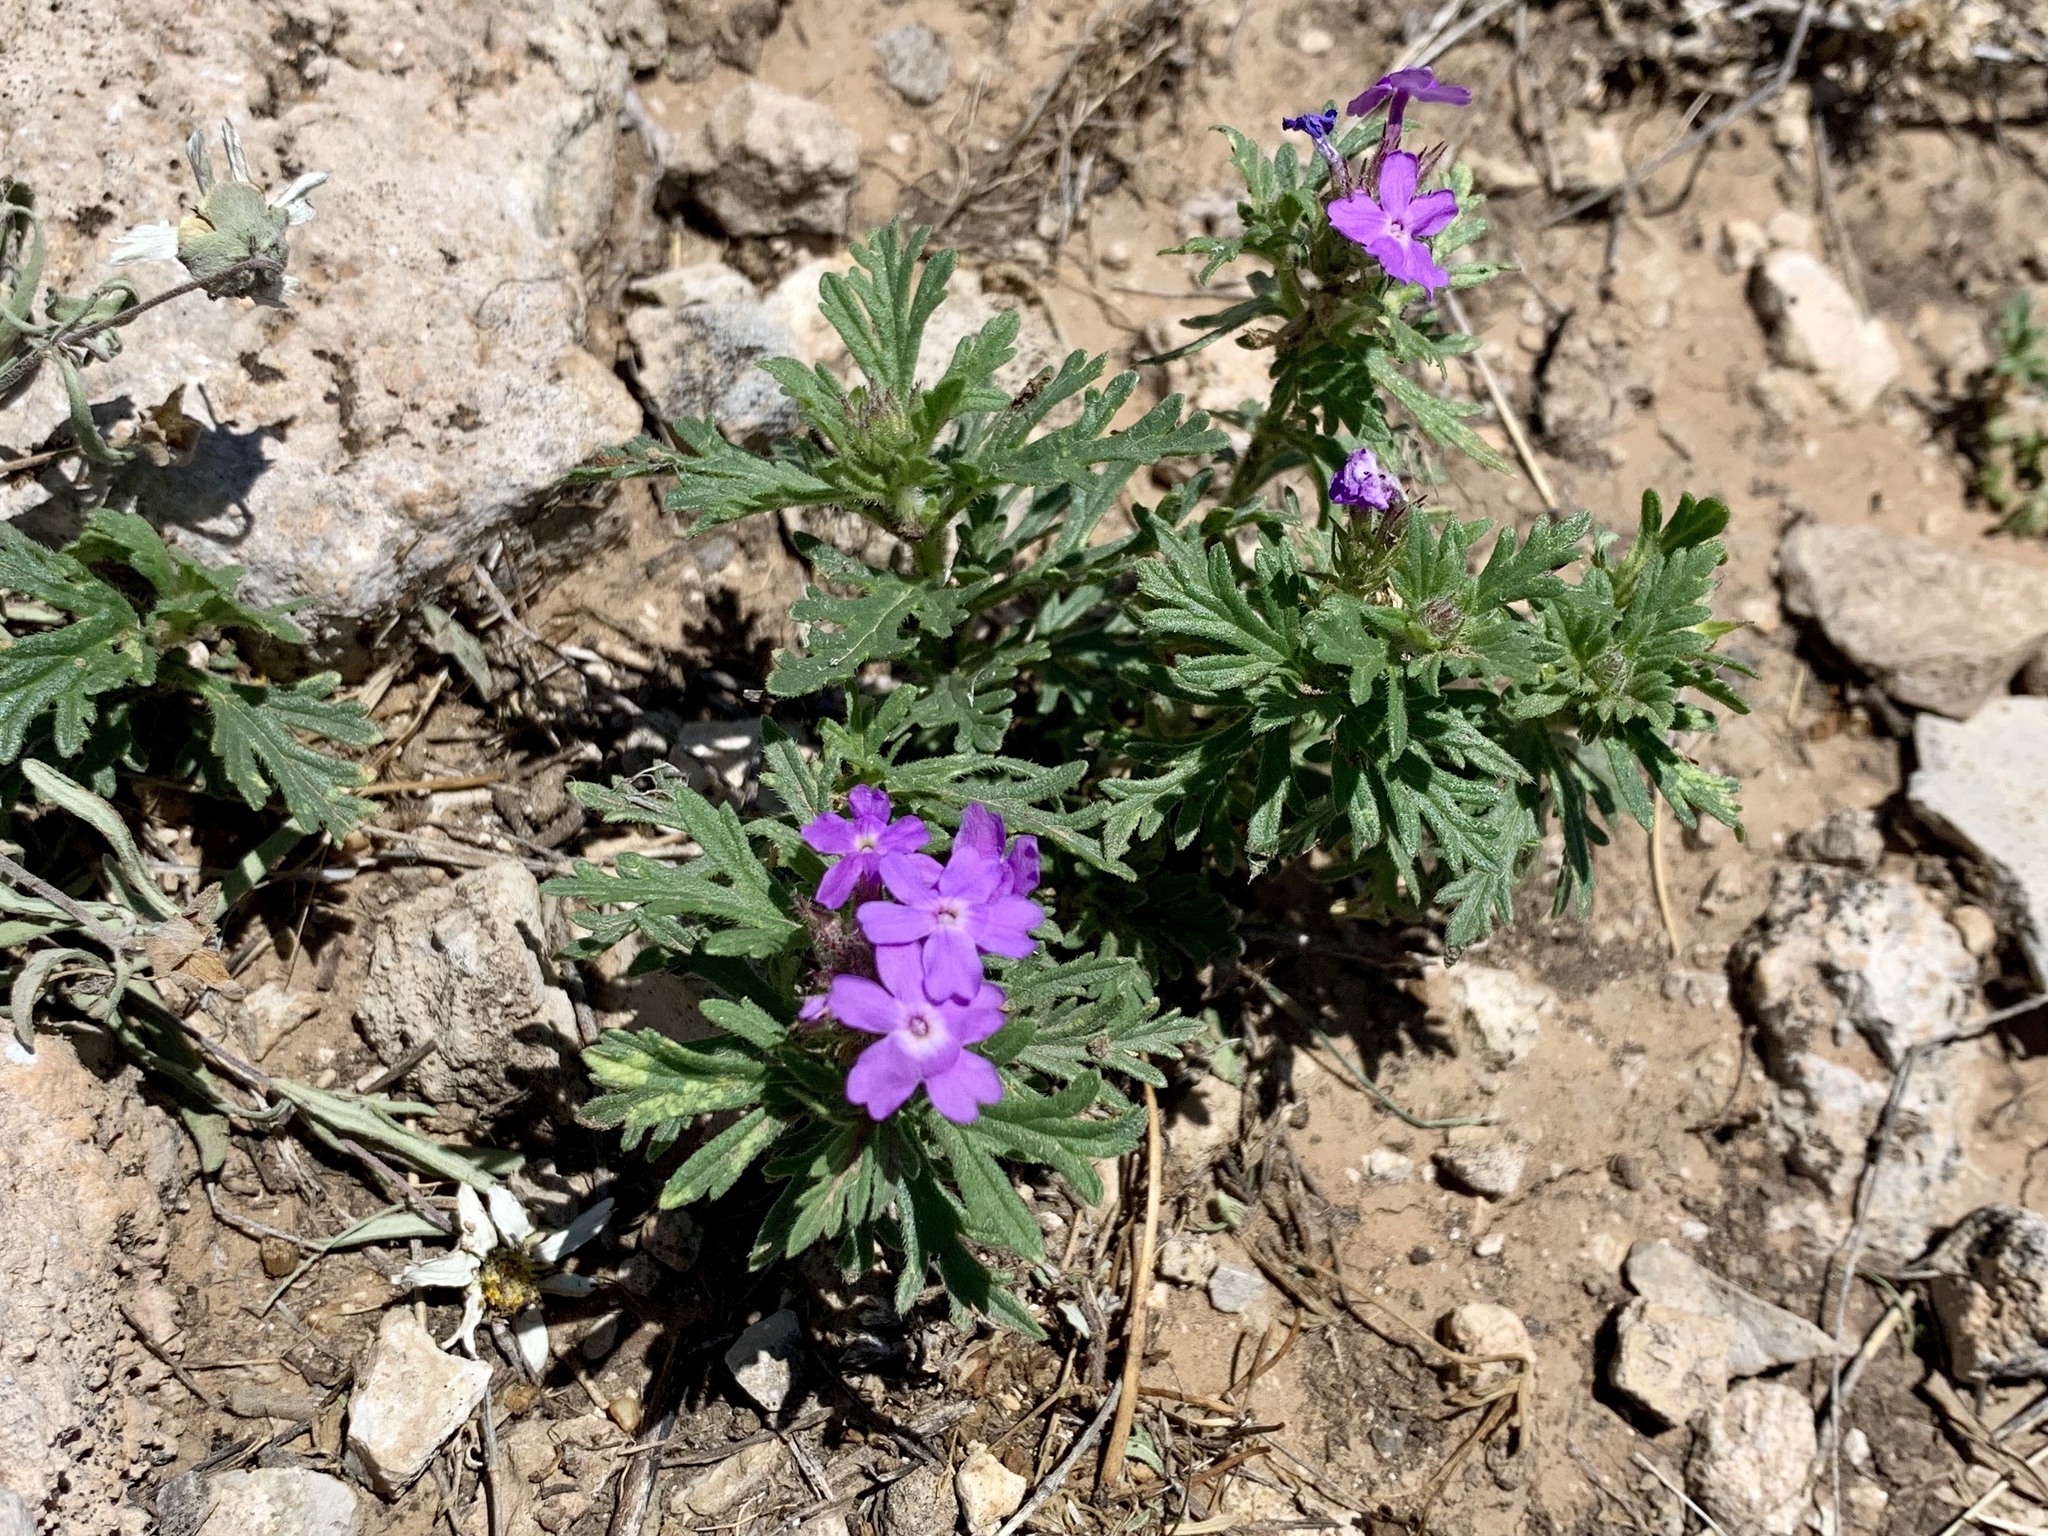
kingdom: Plantae
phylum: Tracheophyta
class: Magnoliopsida
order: Lamiales
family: Verbenaceae
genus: Verbena
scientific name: Verbena bipinnatifida
